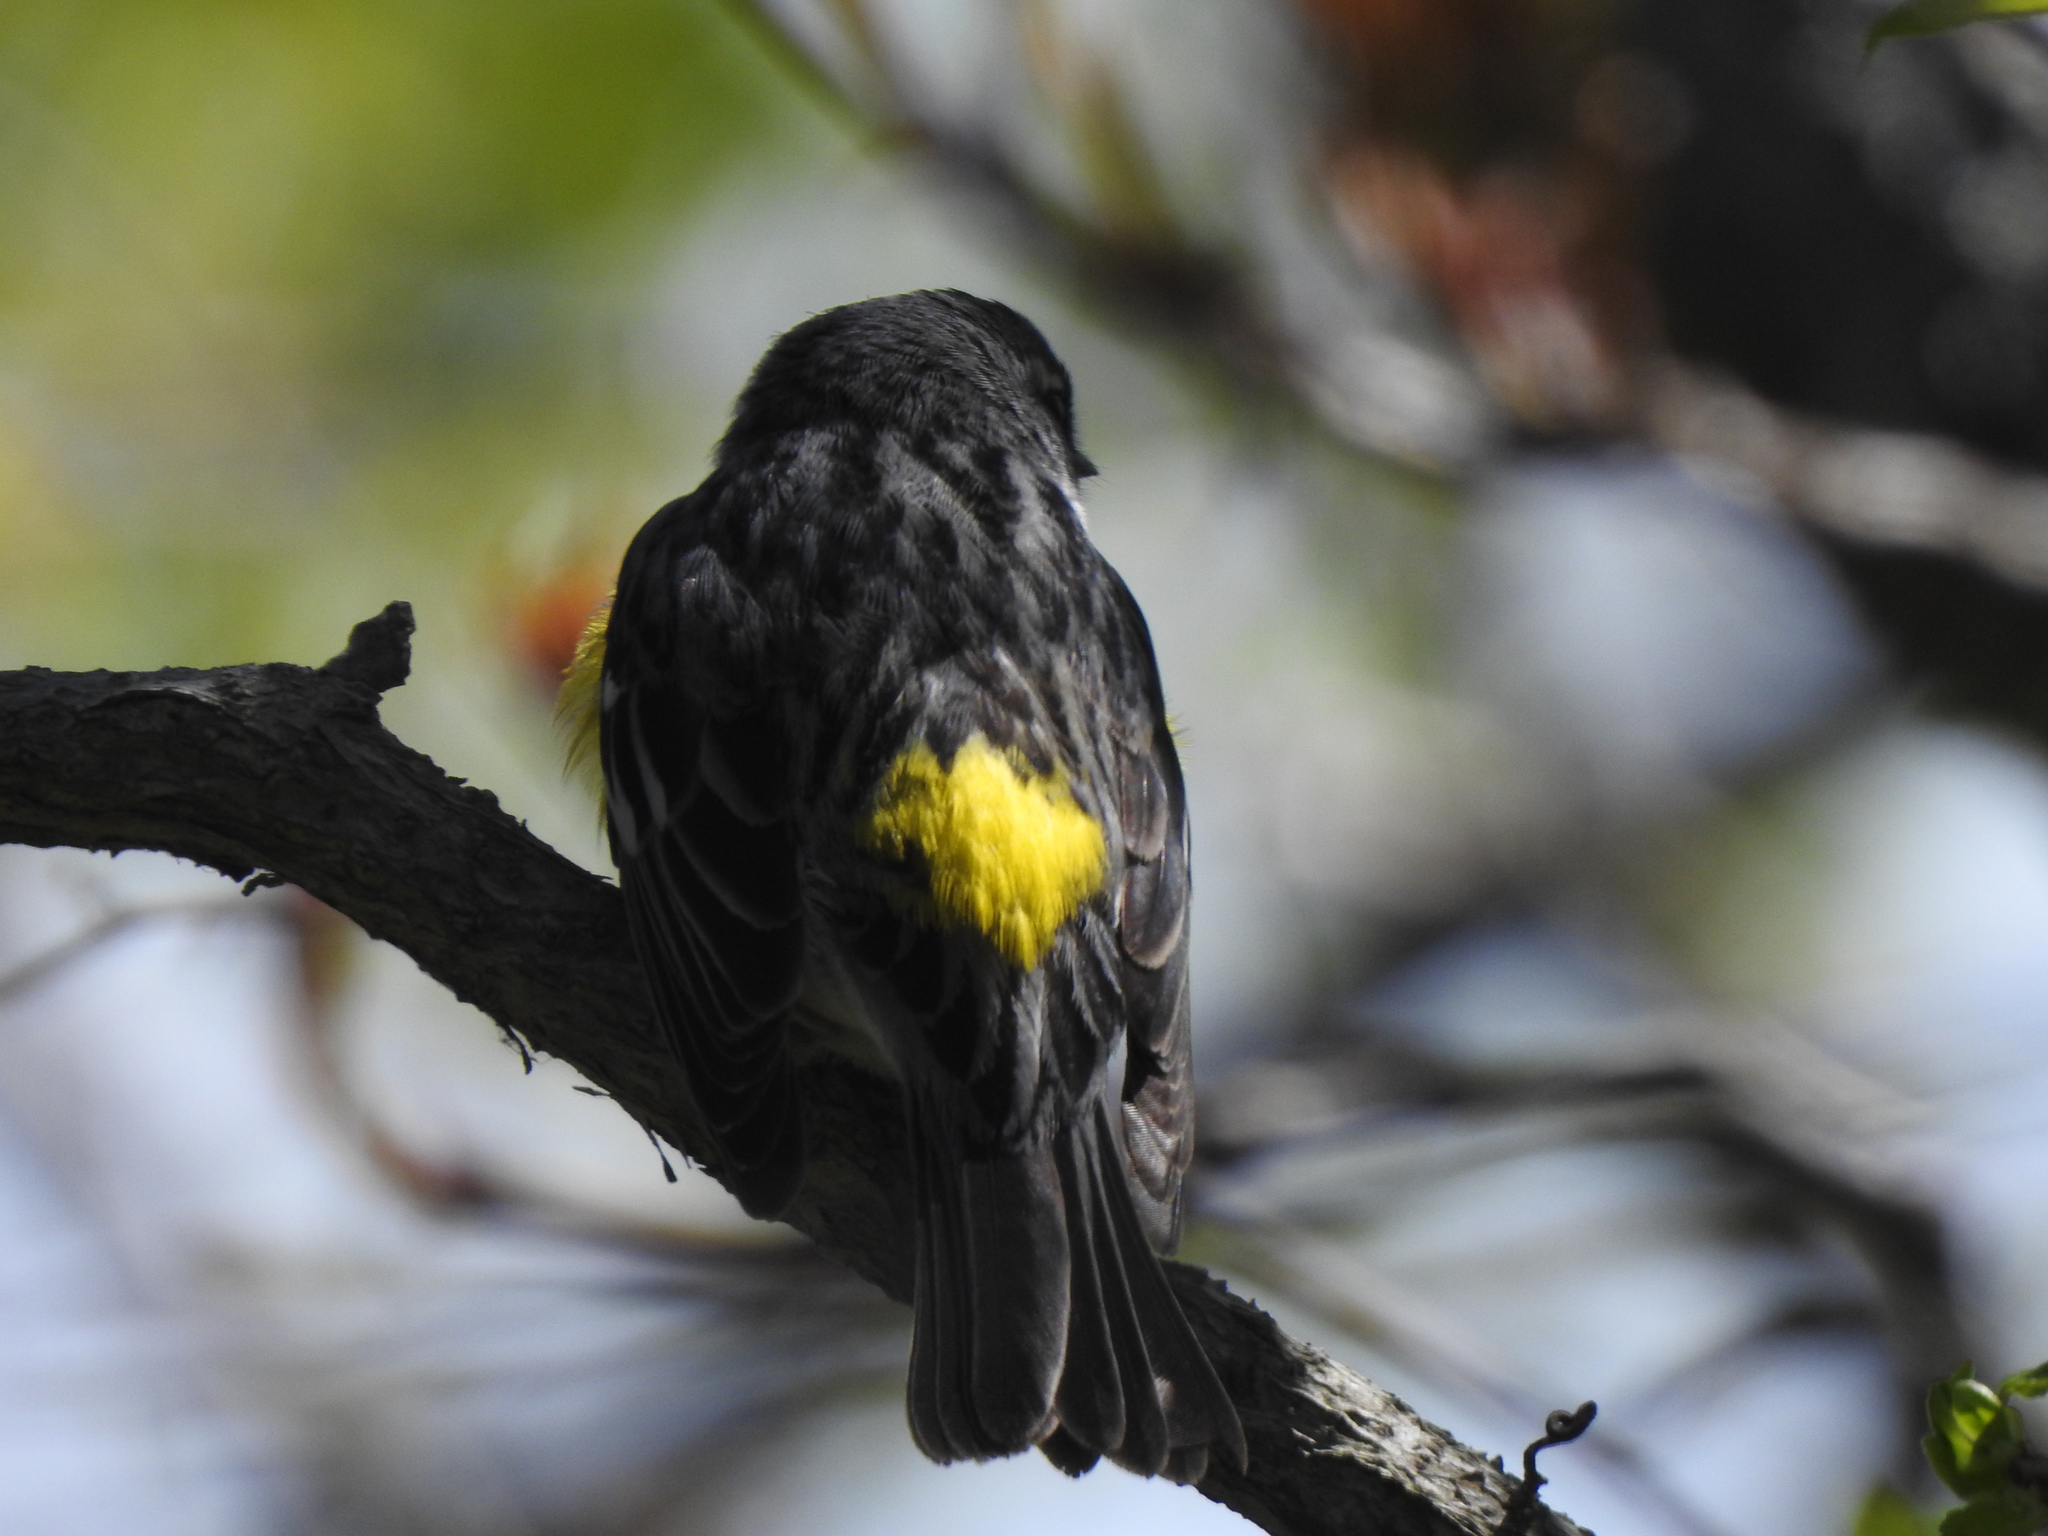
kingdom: Animalia
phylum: Chordata
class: Aves
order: Passeriformes
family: Parulidae
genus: Setophaga
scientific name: Setophaga coronata
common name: Myrtle warbler
